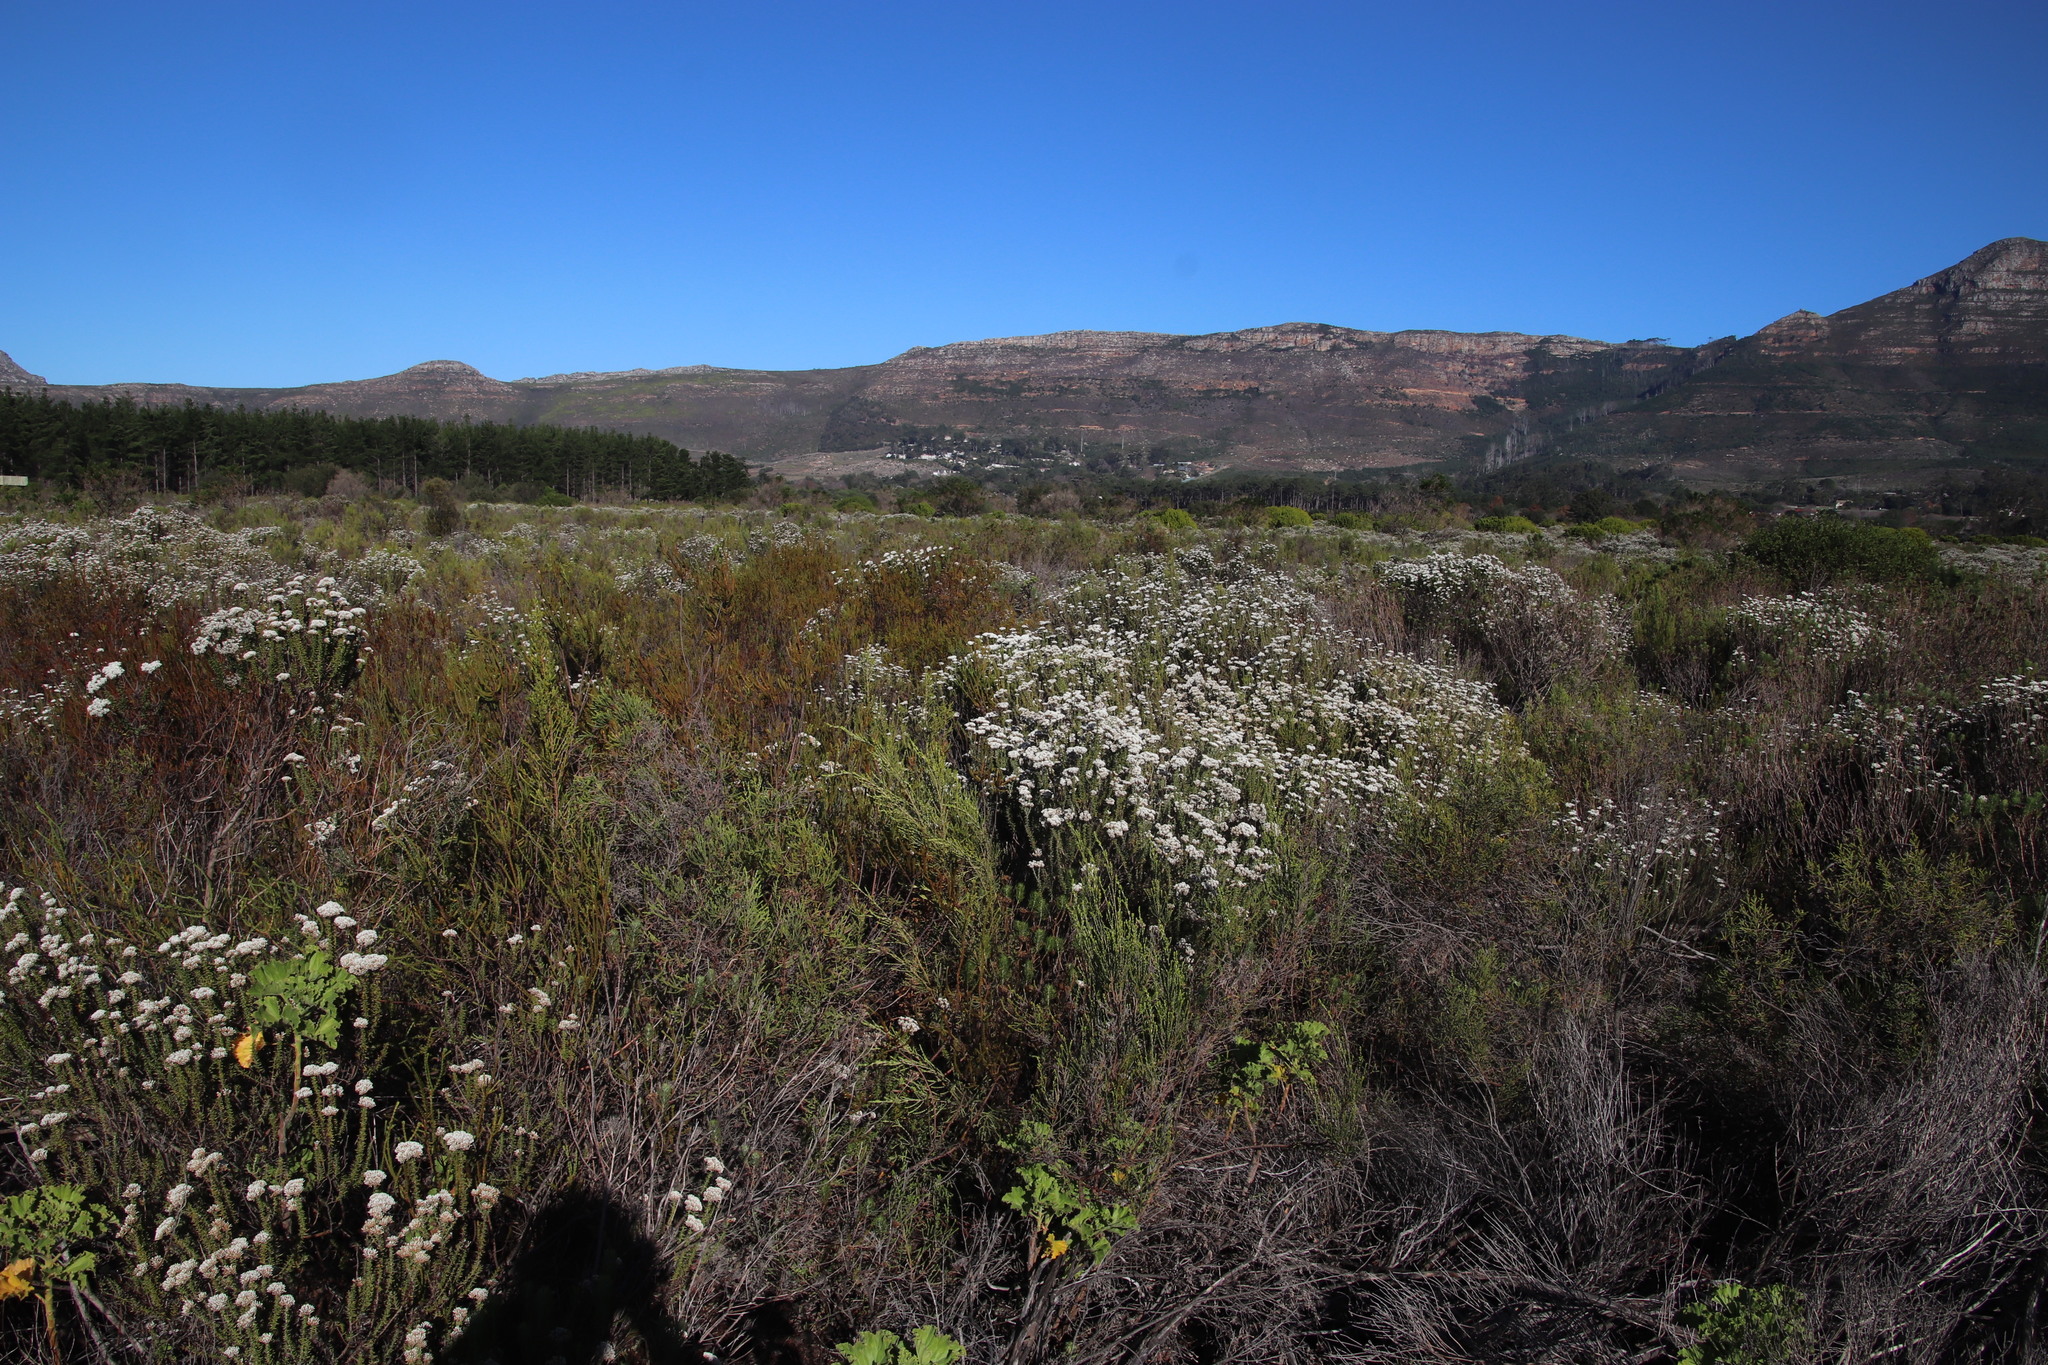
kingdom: Plantae
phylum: Tracheophyta
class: Magnoliopsida
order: Asterales
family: Asteraceae
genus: Metalasia
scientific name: Metalasia densa
